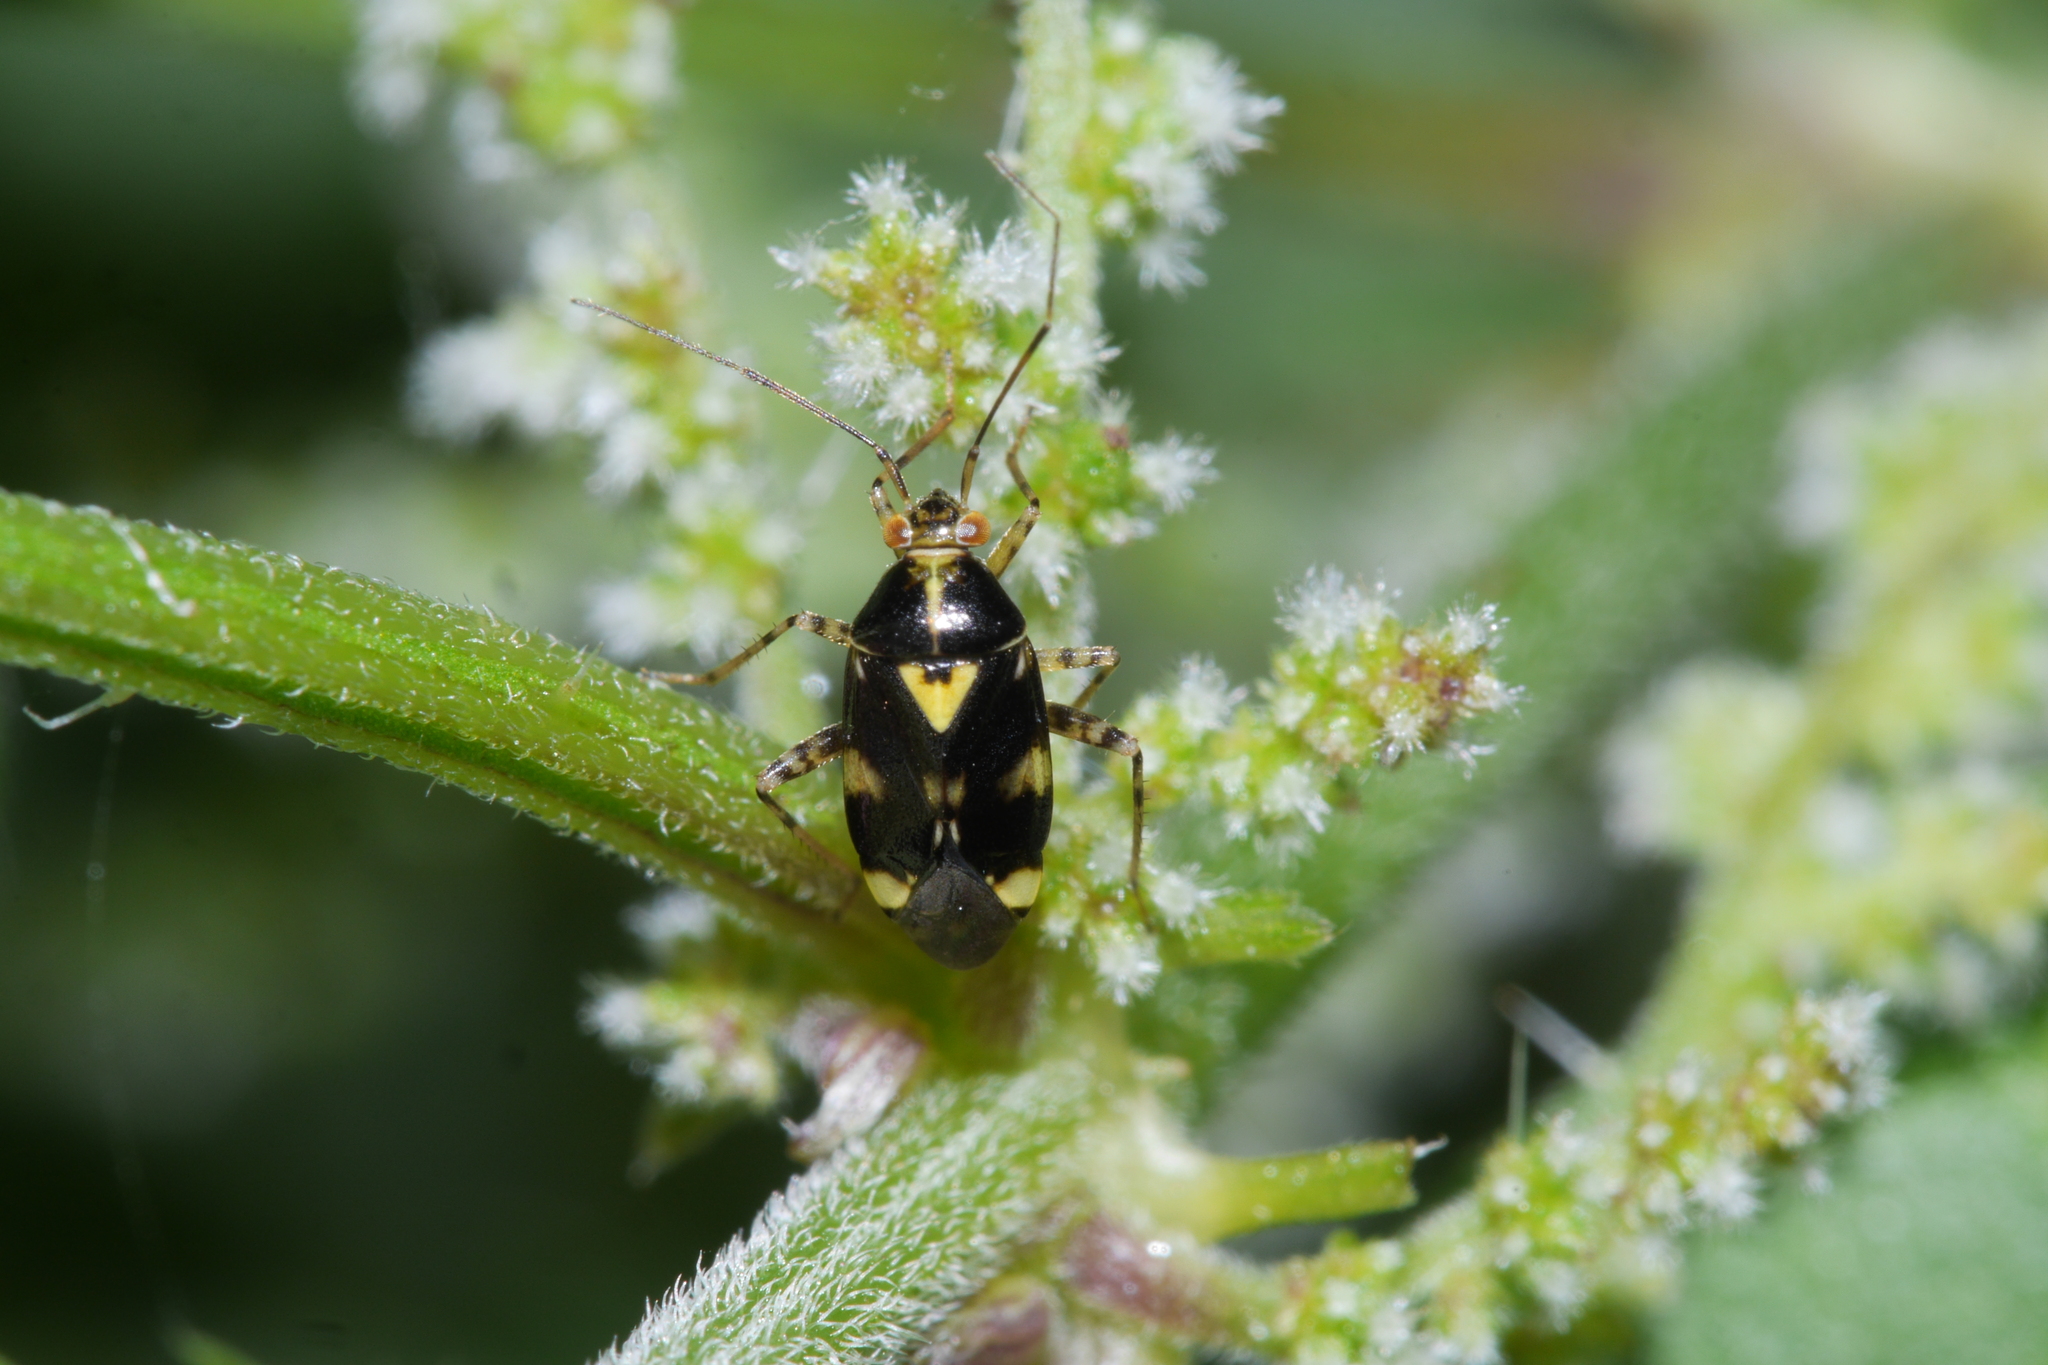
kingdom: Animalia
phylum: Arthropoda
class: Insecta
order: Hemiptera
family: Miridae
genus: Liocoris
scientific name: Liocoris tripustulatus
